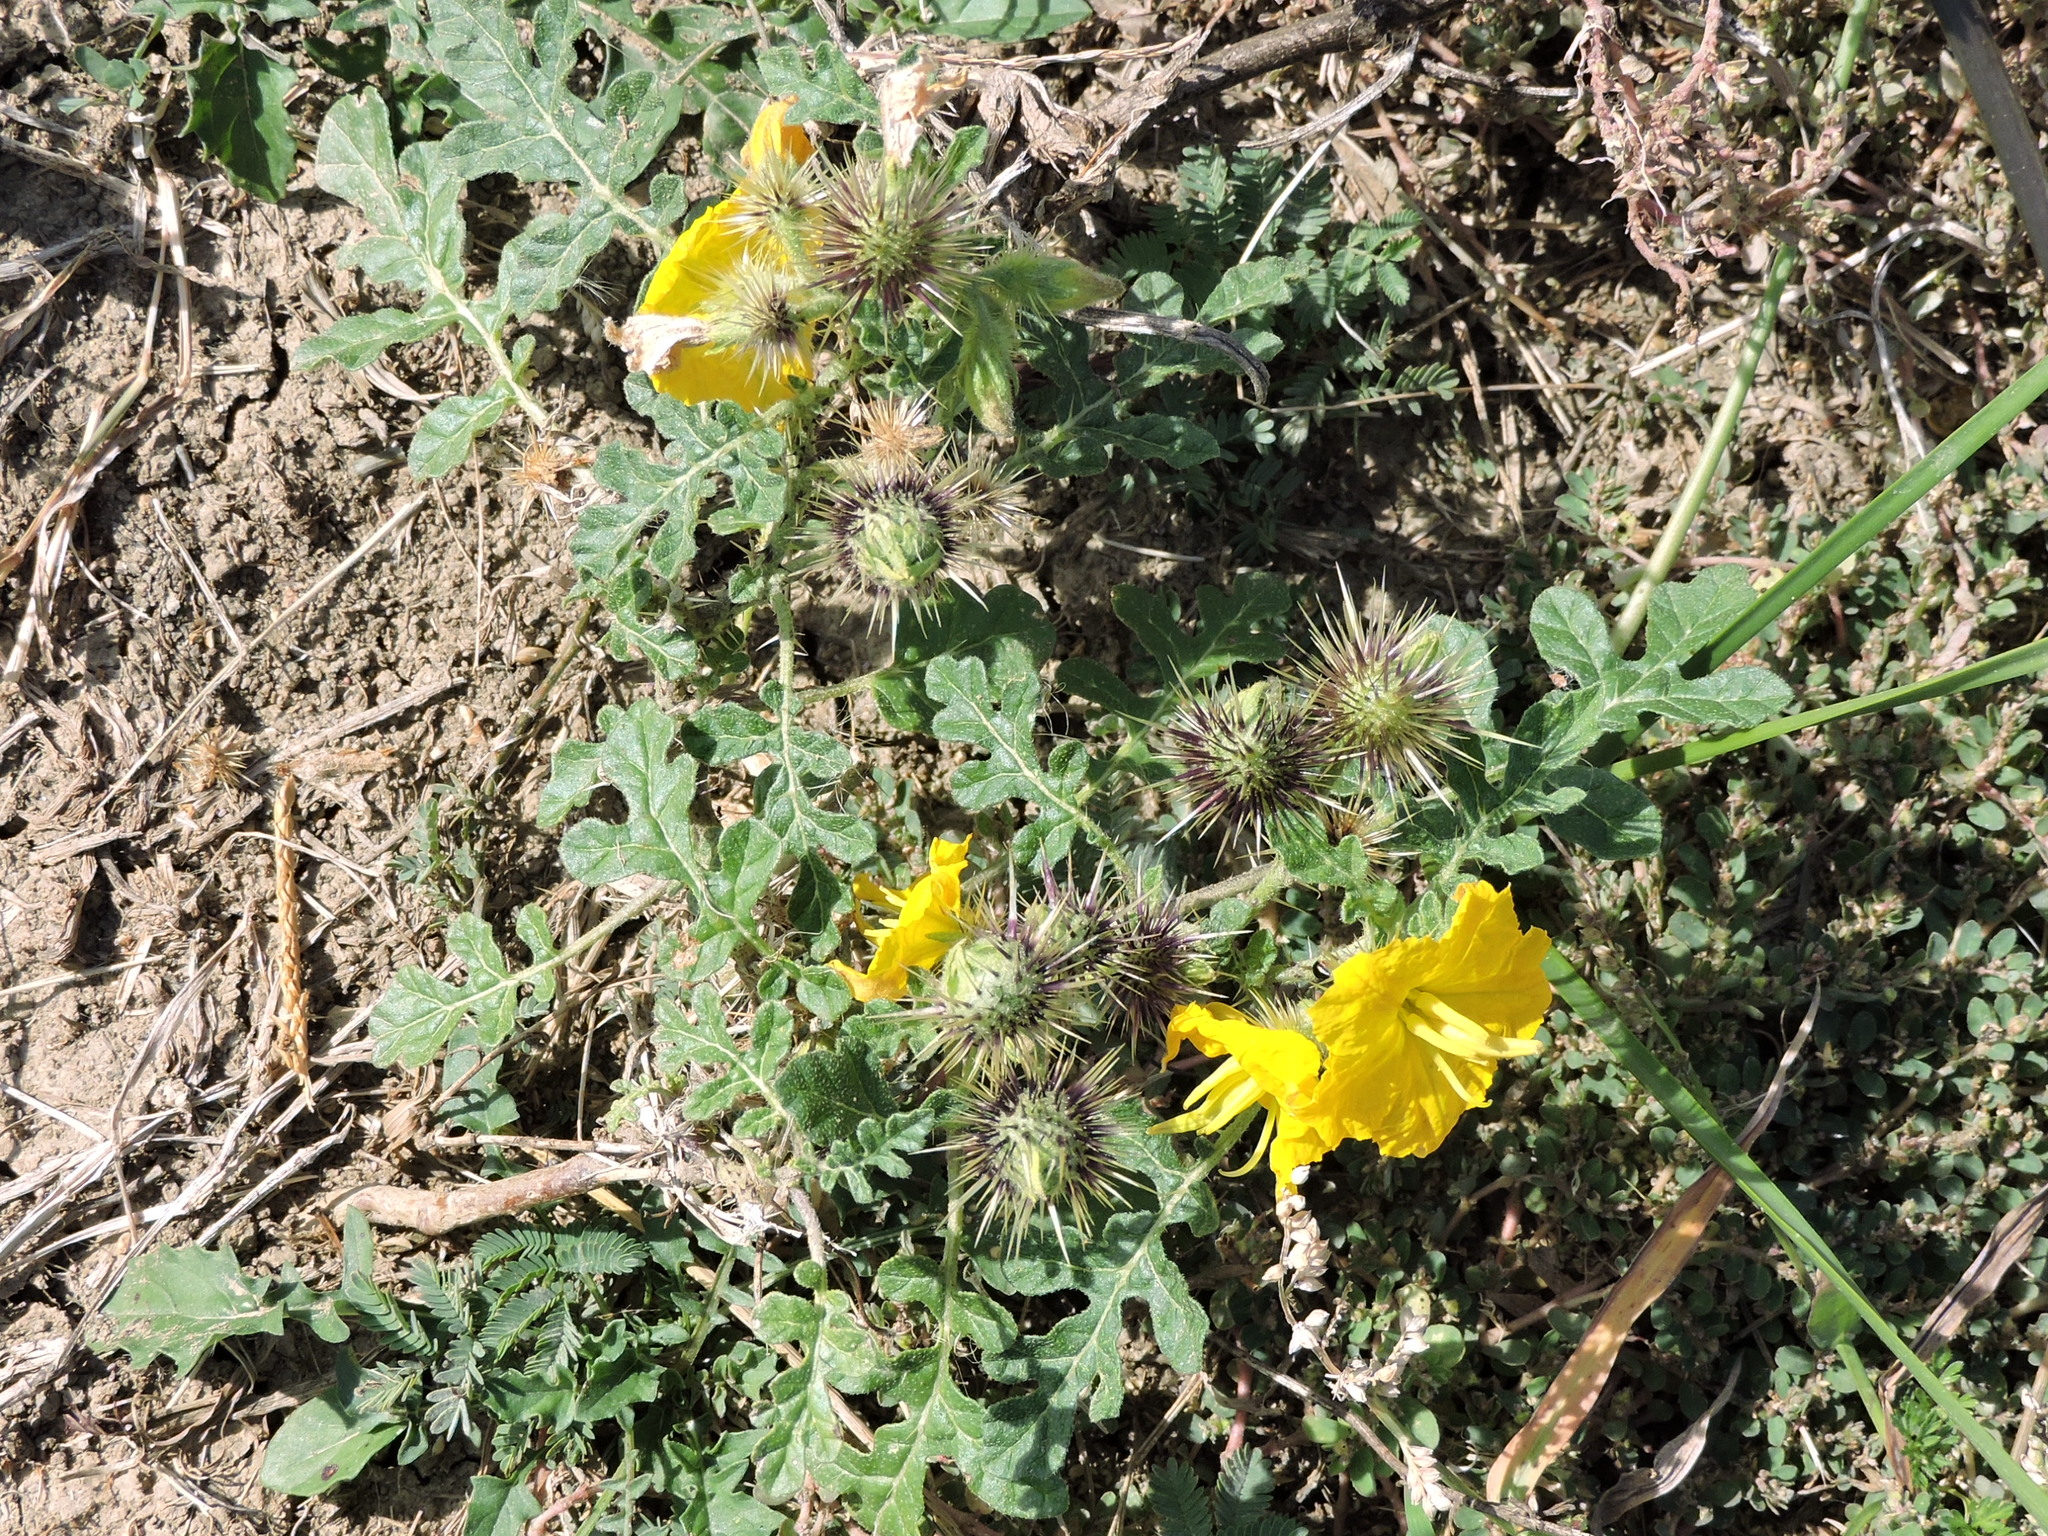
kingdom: Plantae
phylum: Tracheophyta
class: Magnoliopsida
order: Solanales
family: Solanaceae
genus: Solanum
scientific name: Solanum angustifolium
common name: Buffalobur nightshade
